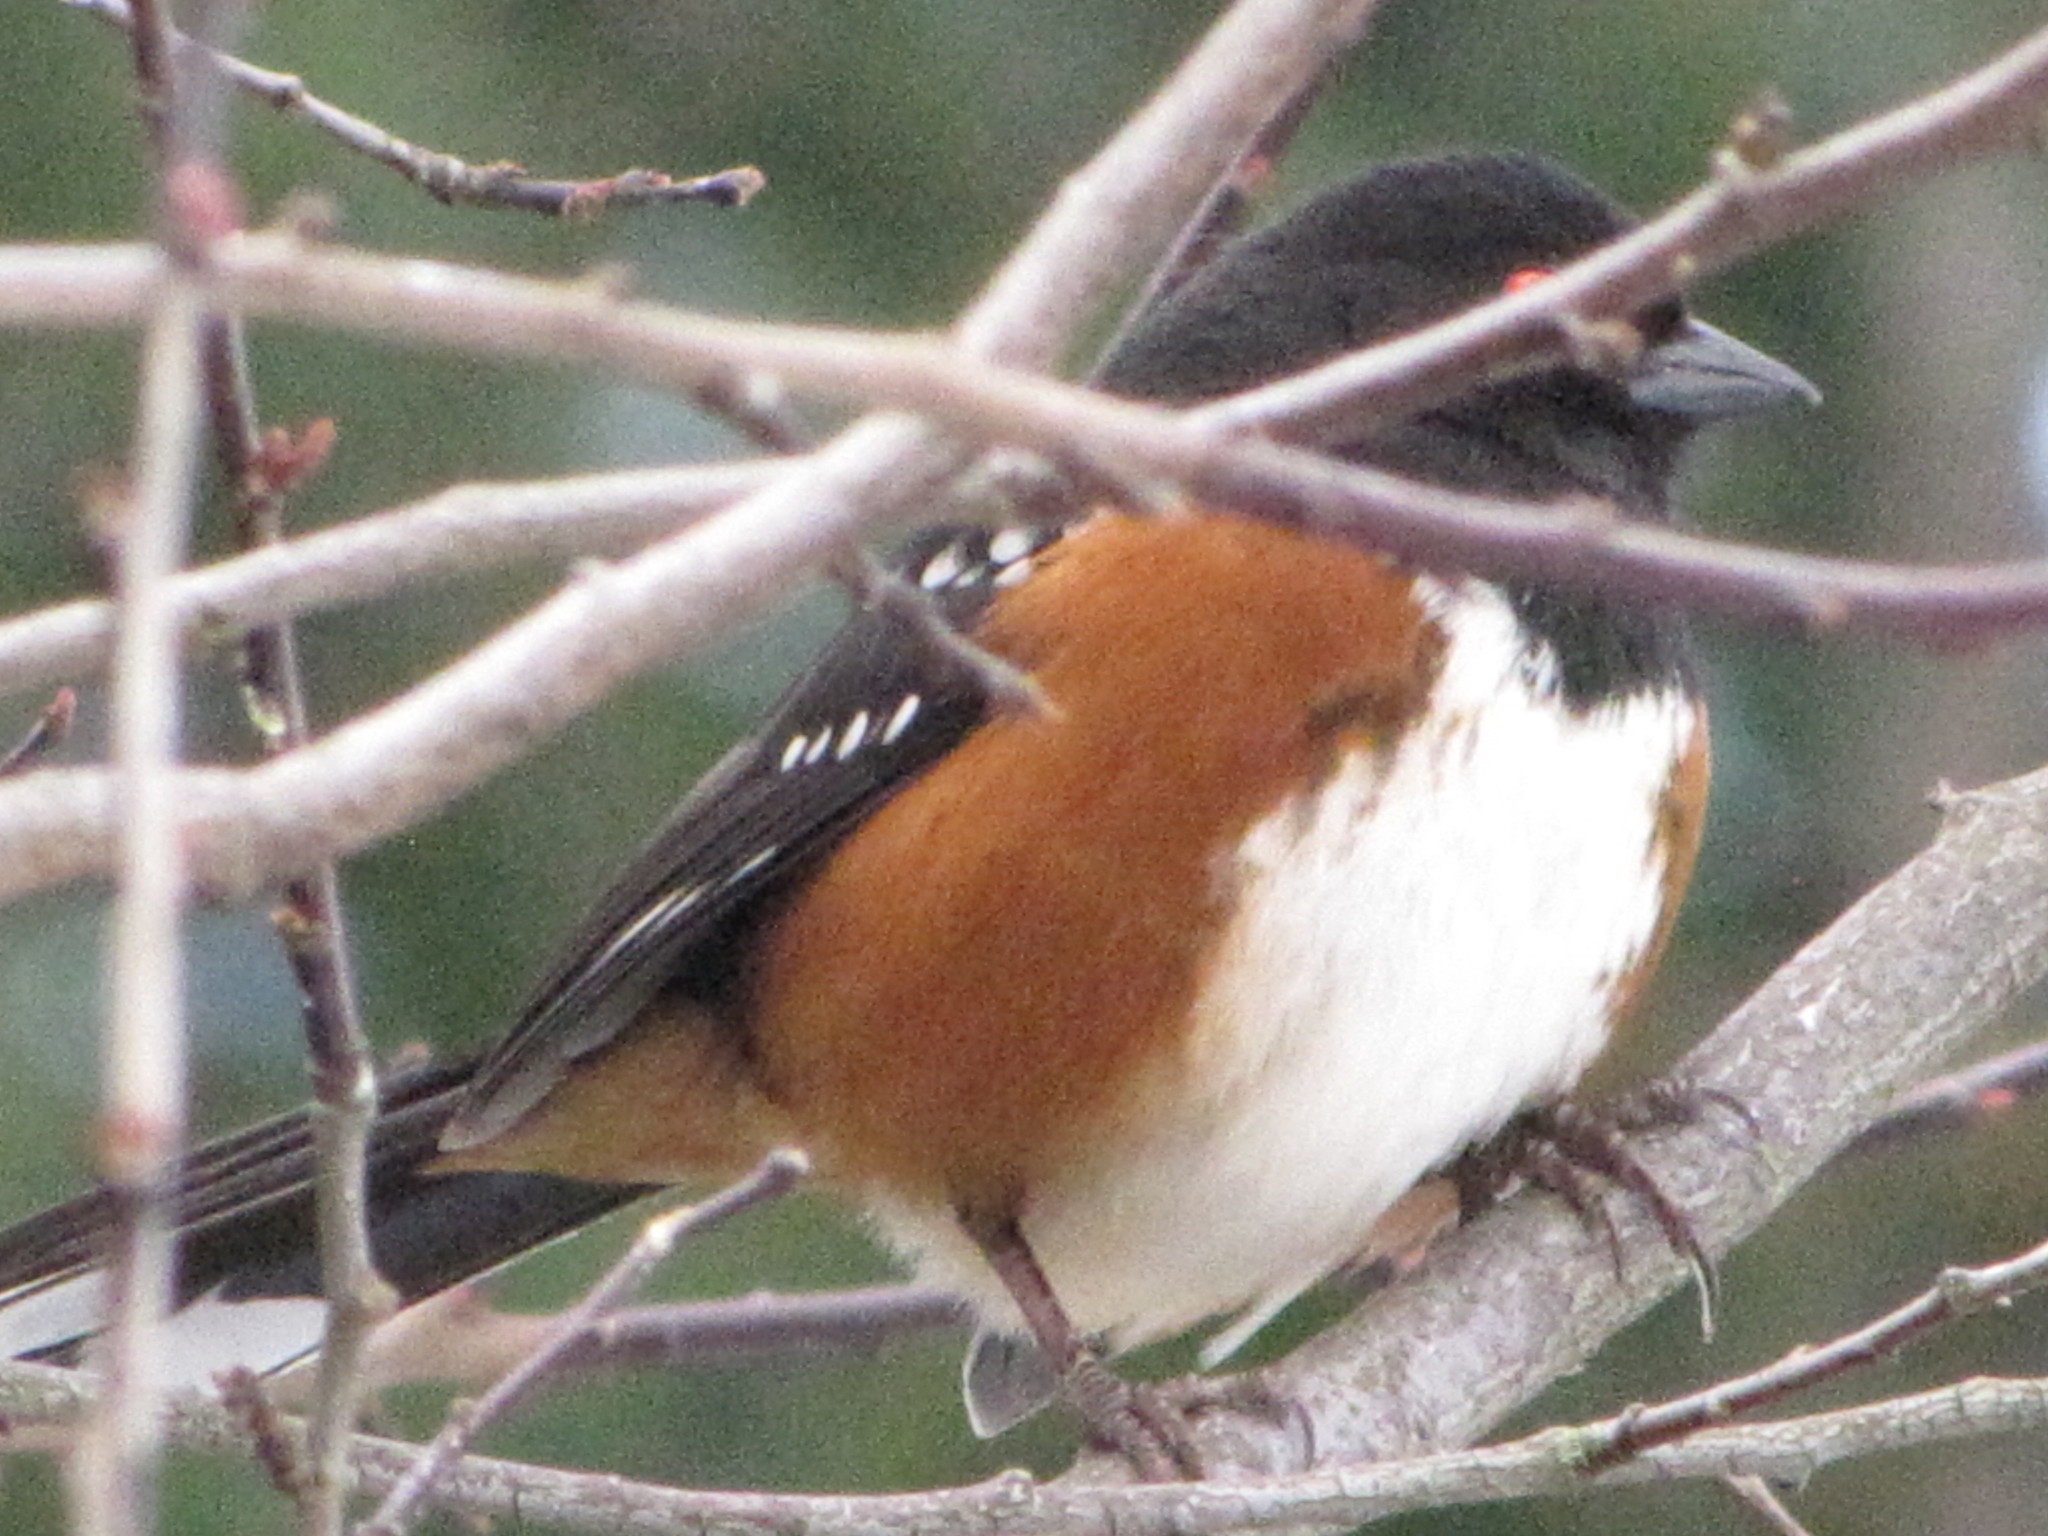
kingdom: Animalia
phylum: Chordata
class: Aves
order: Passeriformes
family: Passerellidae
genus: Pipilo
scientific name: Pipilo maculatus
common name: Spotted towhee
